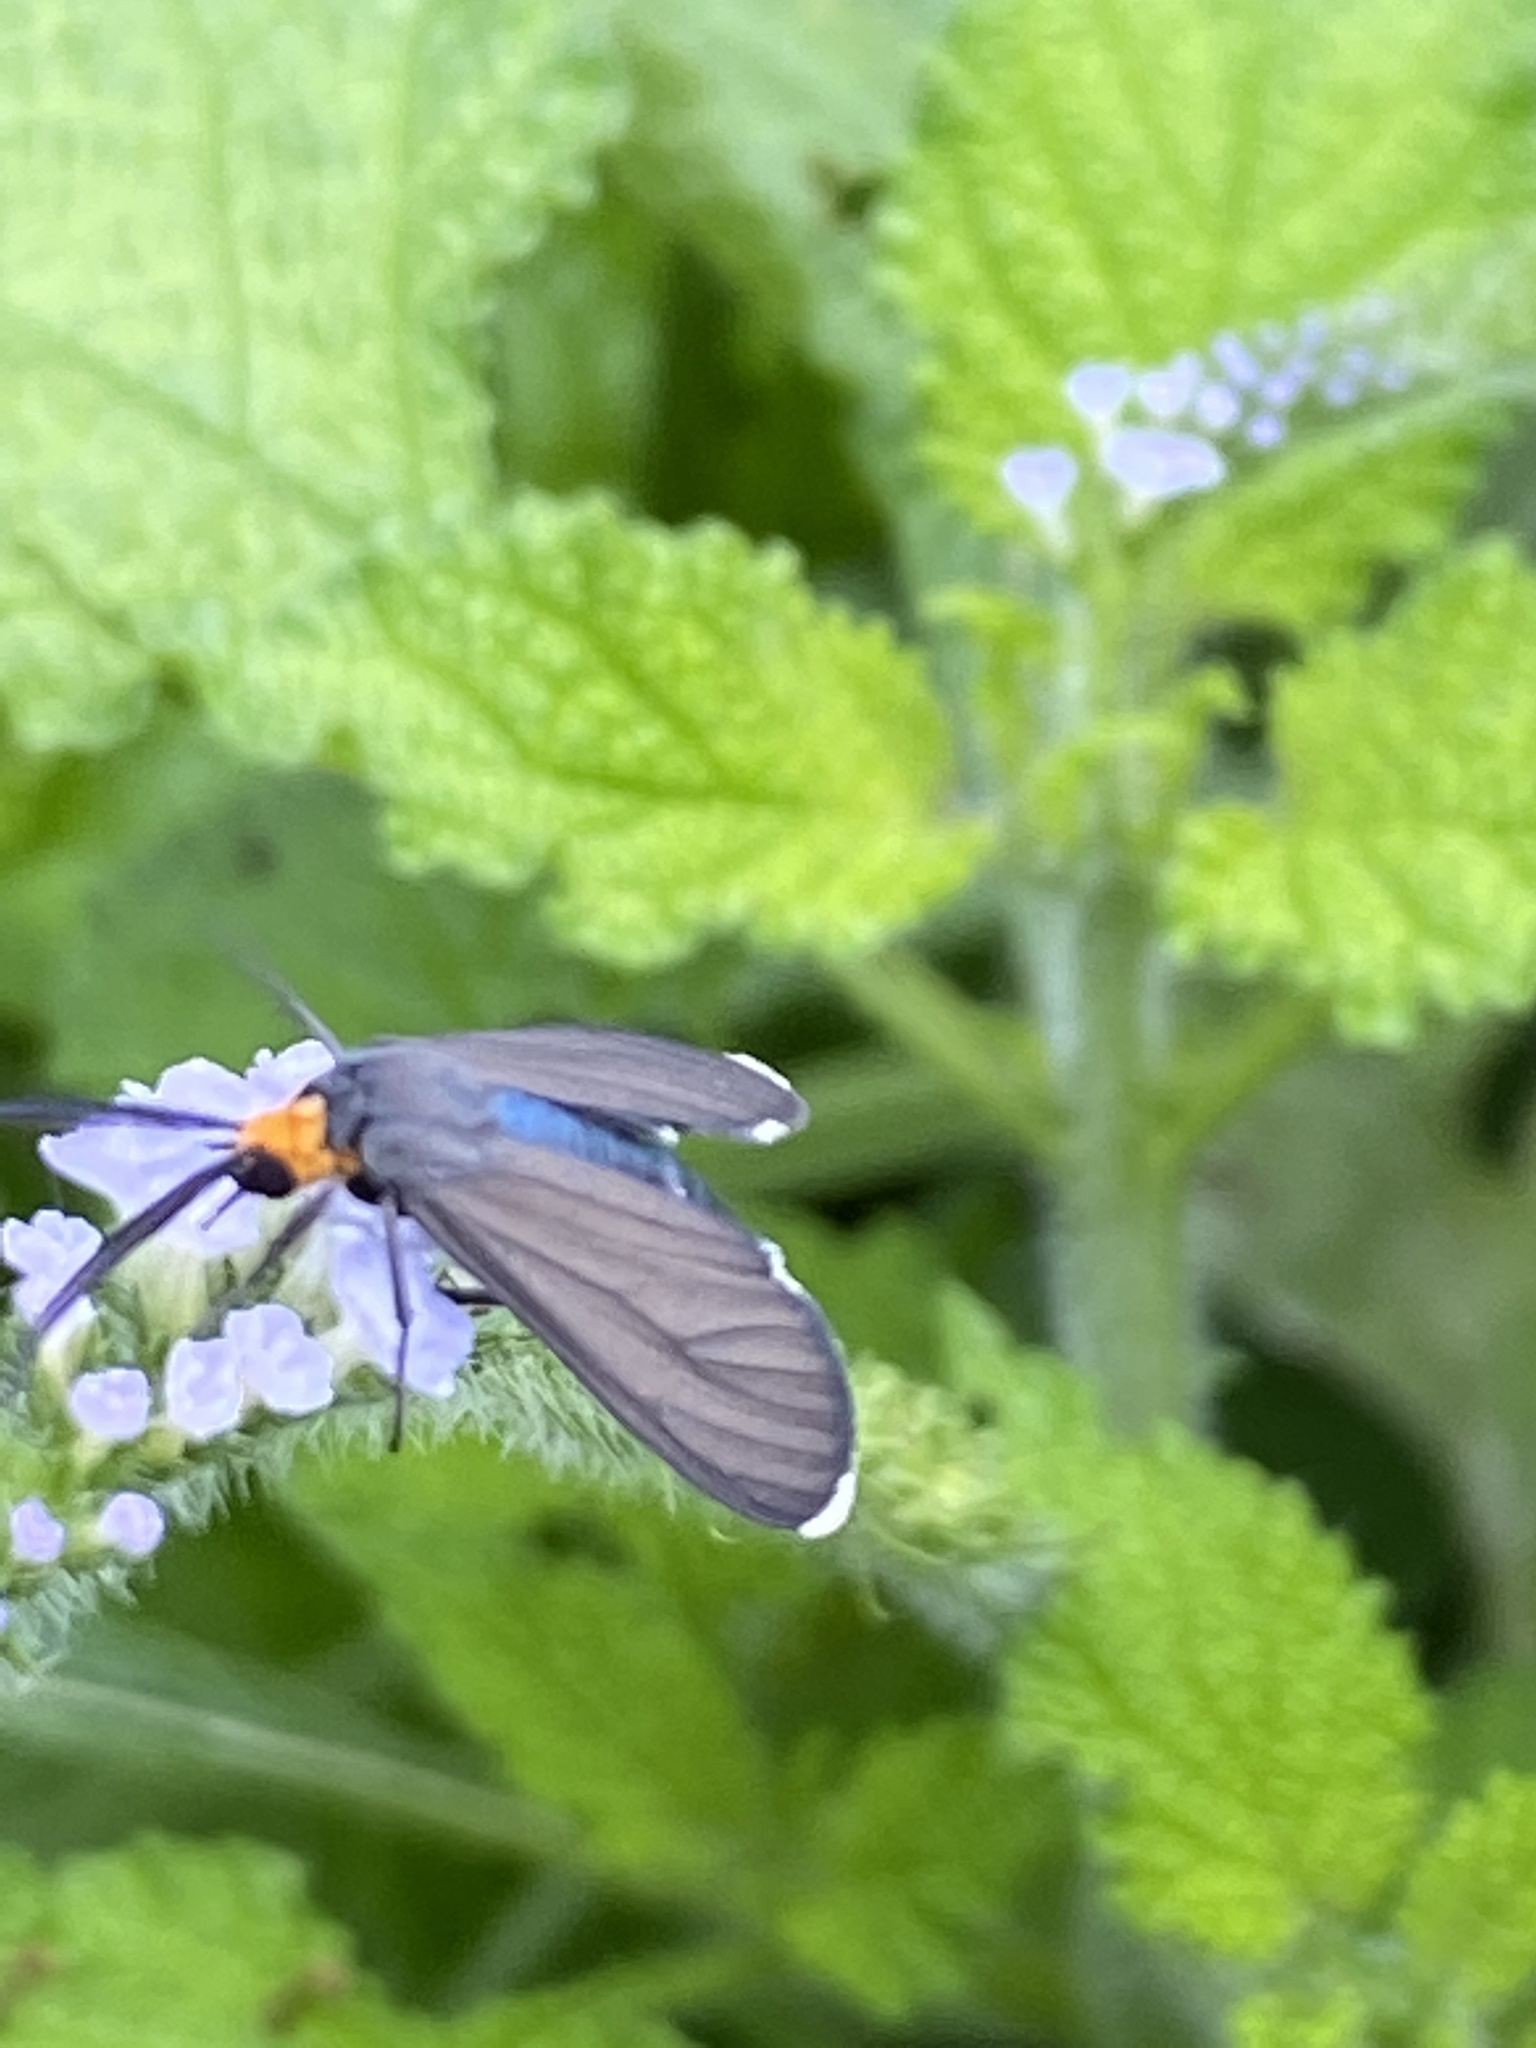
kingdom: Animalia
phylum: Arthropoda
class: Insecta
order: Lepidoptera
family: Erebidae
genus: Ctenucha
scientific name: Ctenucha rubriceps
